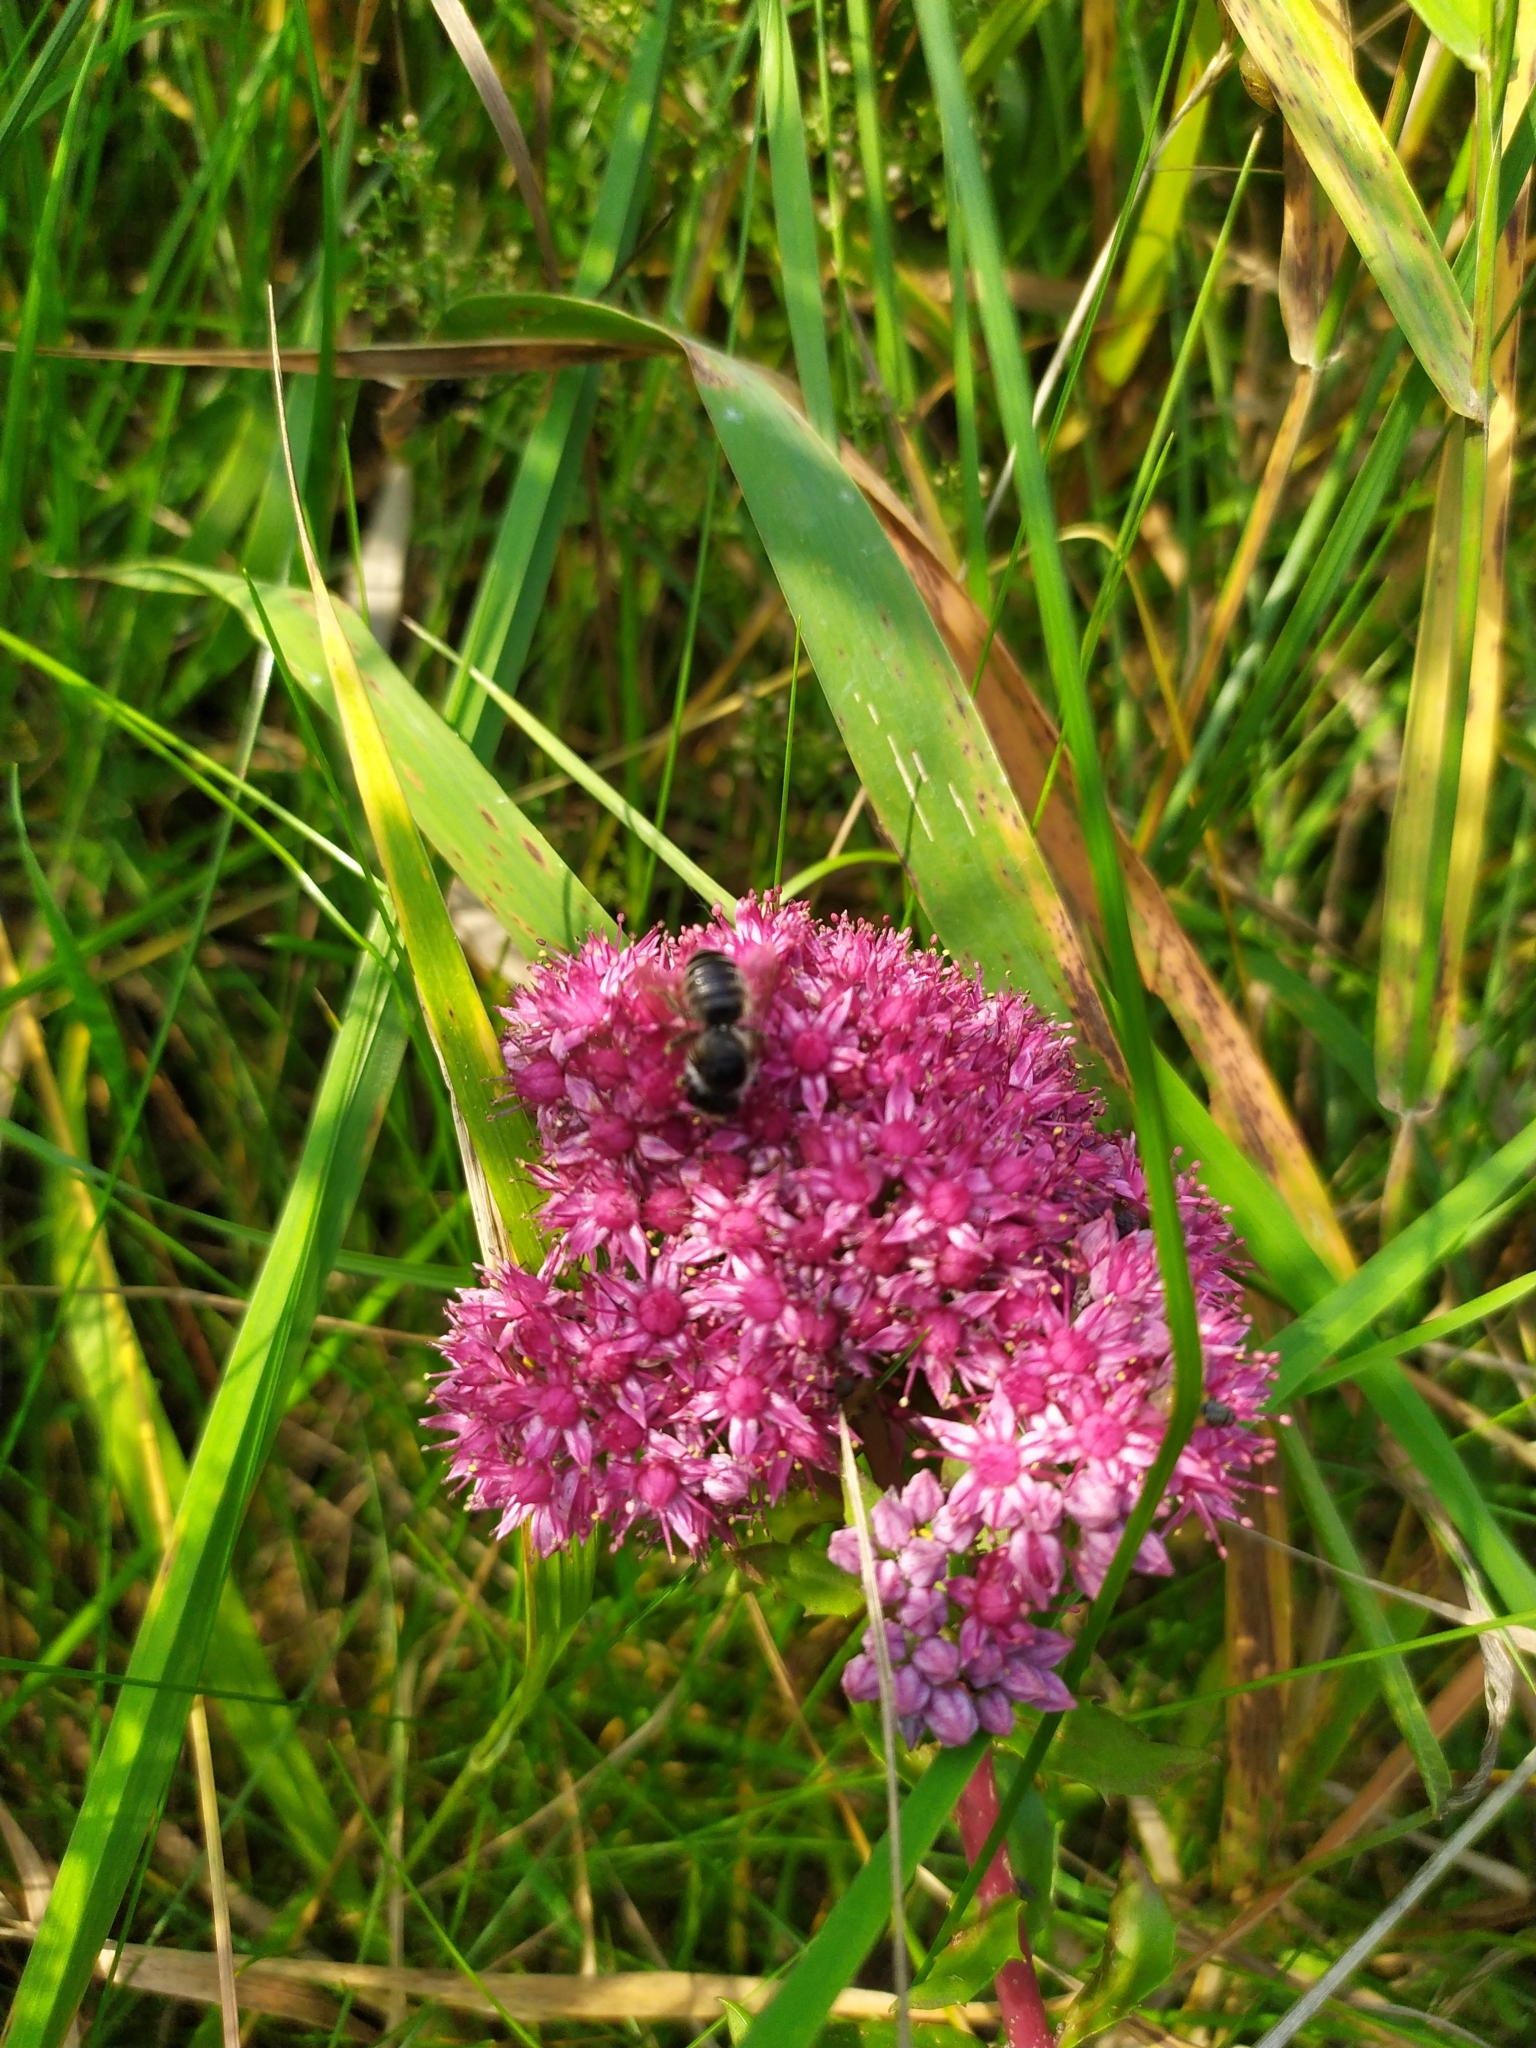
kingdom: Plantae
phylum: Tracheophyta
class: Magnoliopsida
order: Saxifragales
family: Crassulaceae
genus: Hylotelephium
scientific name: Hylotelephium telephium
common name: Live-forever
